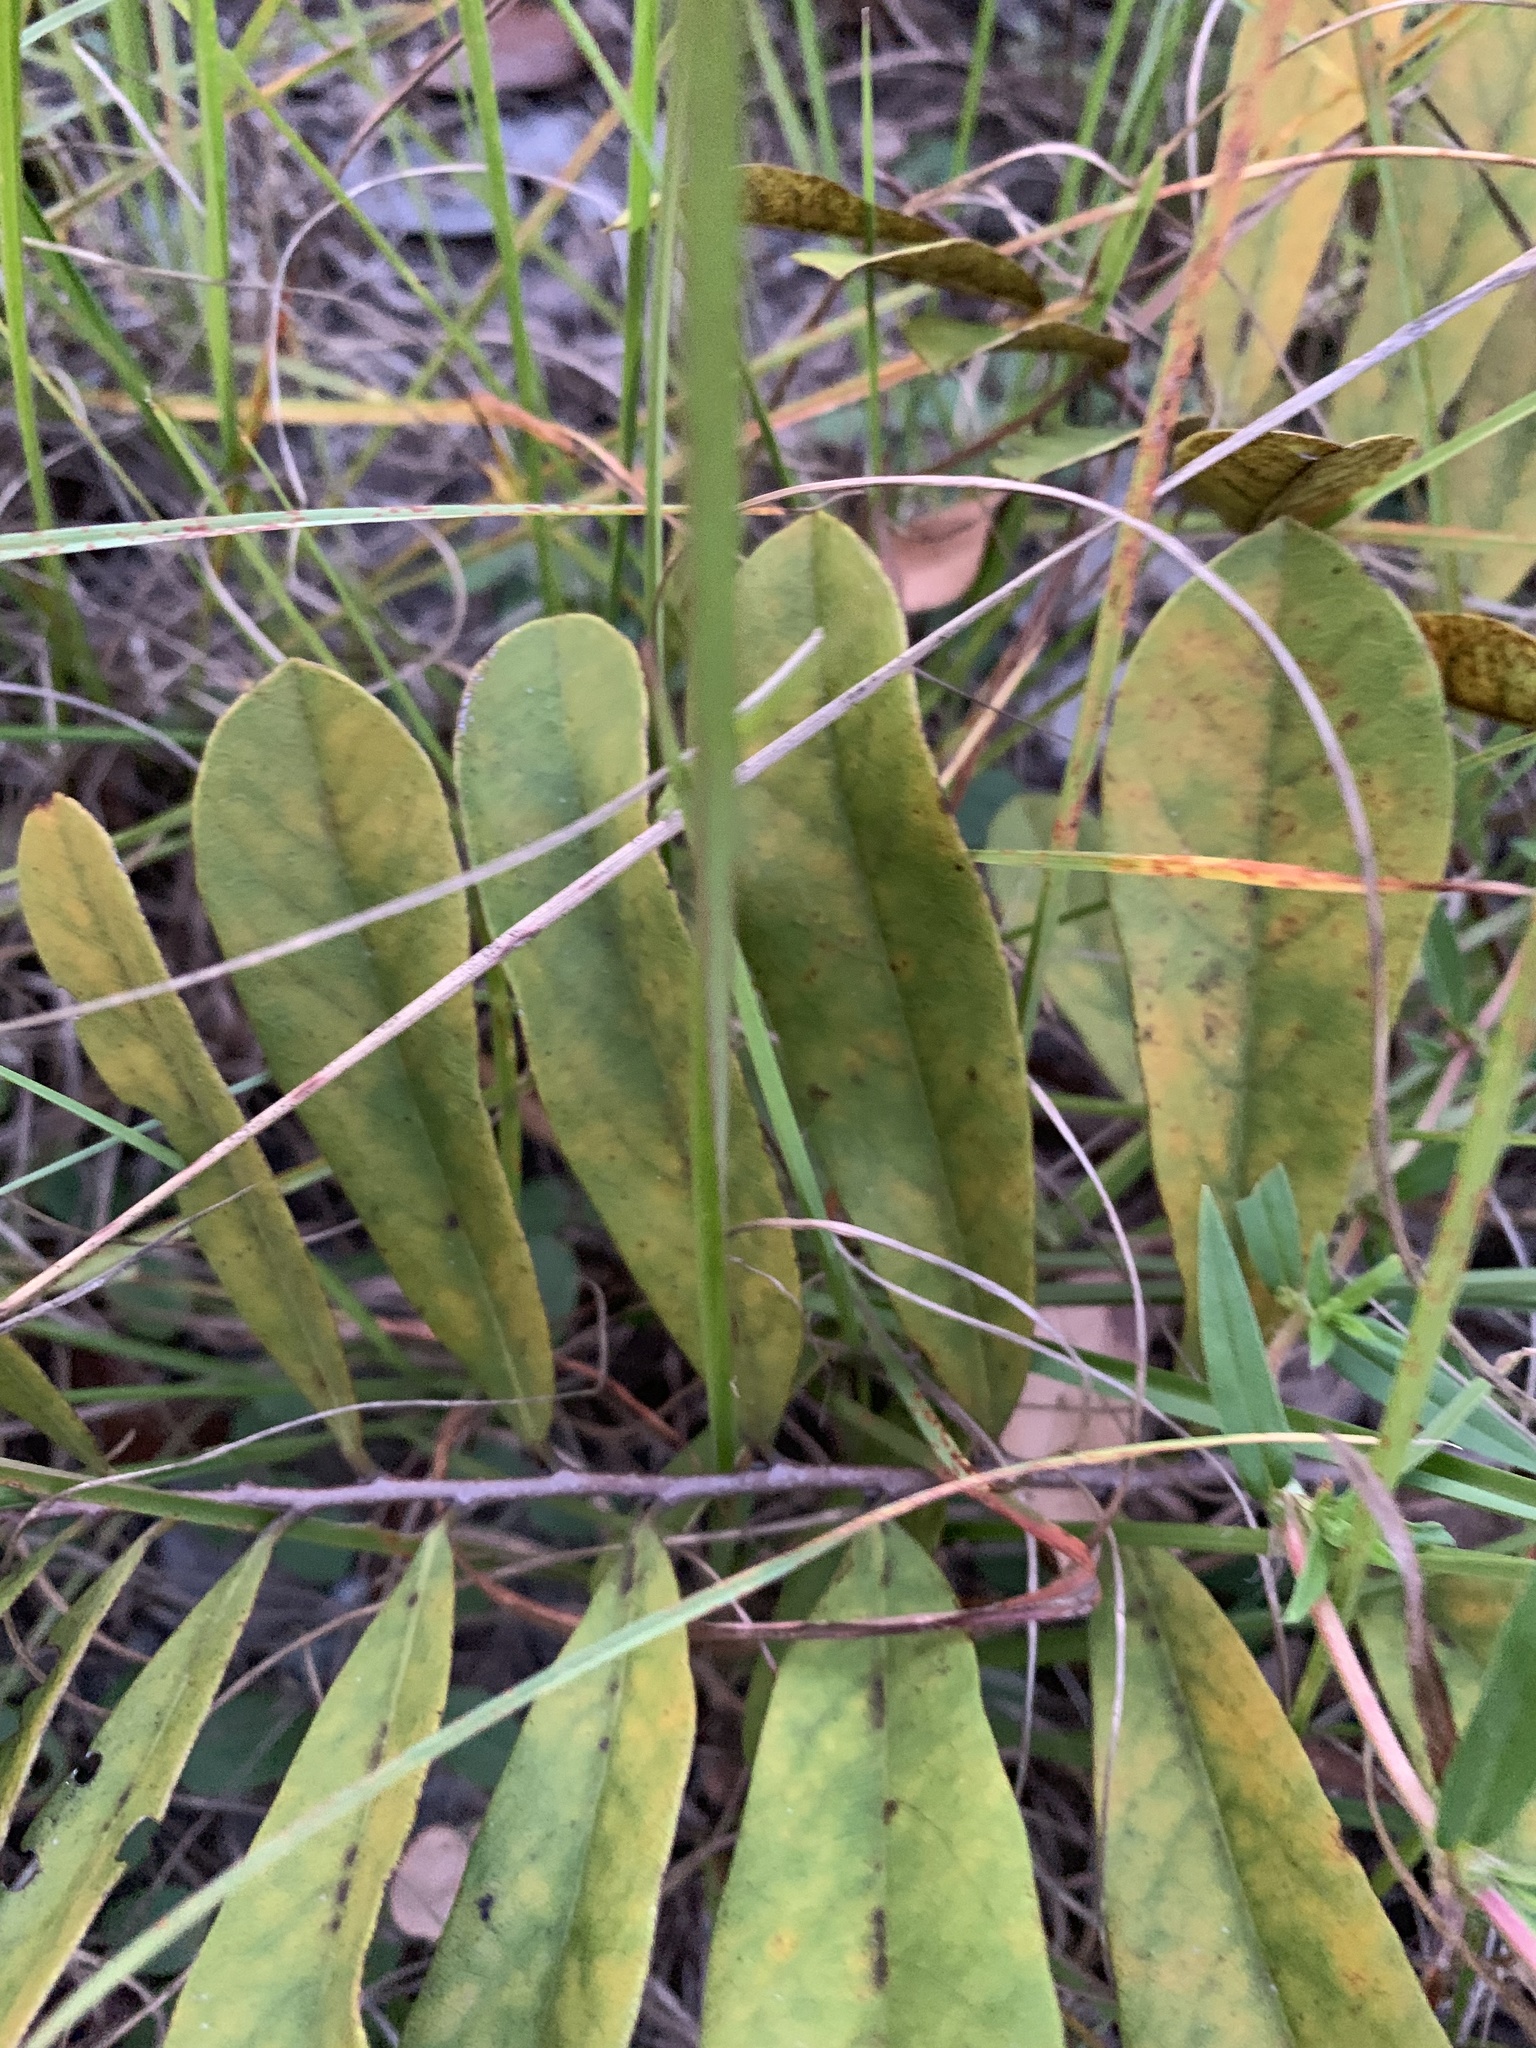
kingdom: Plantae
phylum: Tracheophyta
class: Magnoliopsida
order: Magnoliales
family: Annonaceae
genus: Asimina
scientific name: Asimina pygmaea
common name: Dwarf pawpaw
